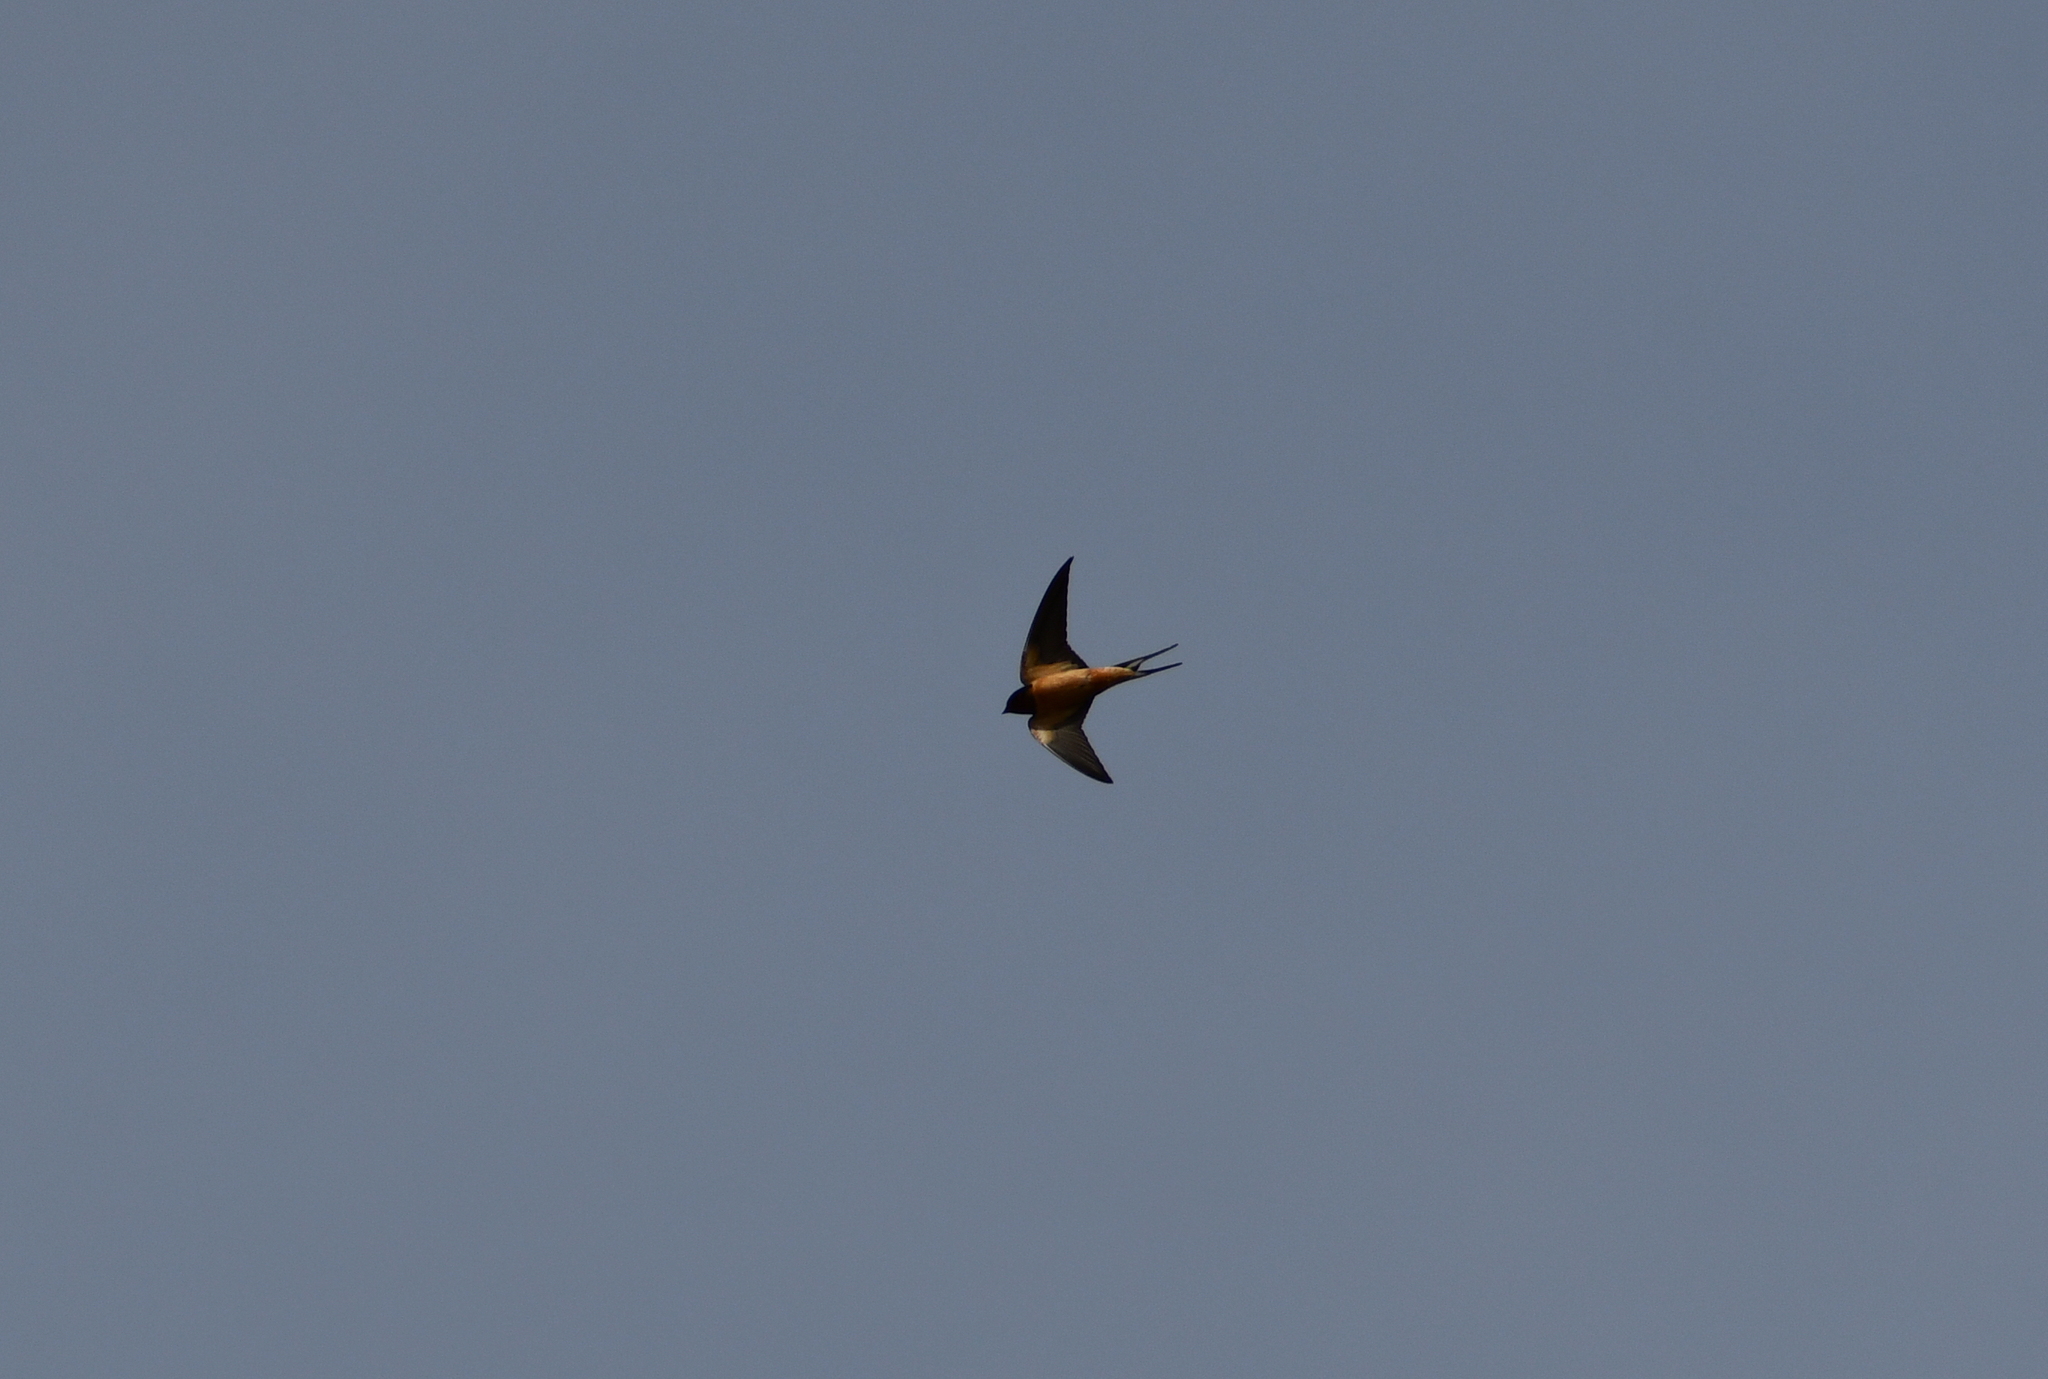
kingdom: Animalia
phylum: Chordata
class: Aves
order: Passeriformes
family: Hirundinidae
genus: Hirundo
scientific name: Hirundo rustica
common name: Barn swallow
